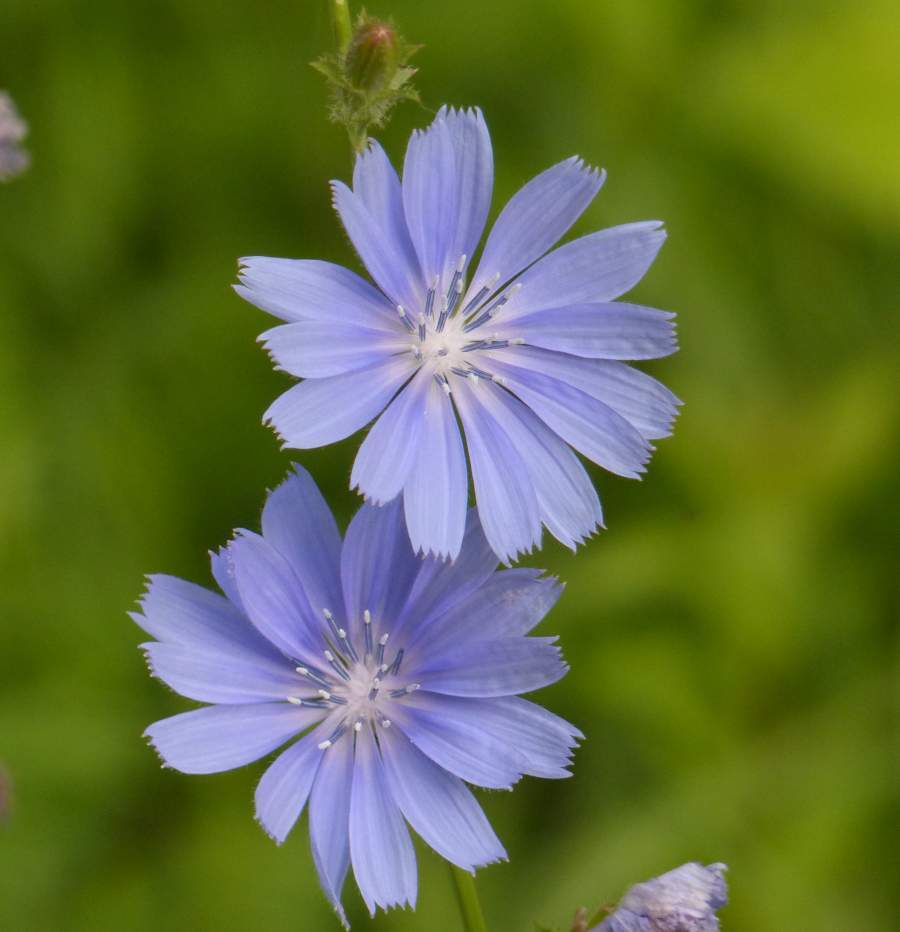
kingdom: Plantae
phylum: Tracheophyta
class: Magnoliopsida
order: Asterales
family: Asteraceae
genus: Cichorium
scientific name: Cichorium intybus
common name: Chicory
